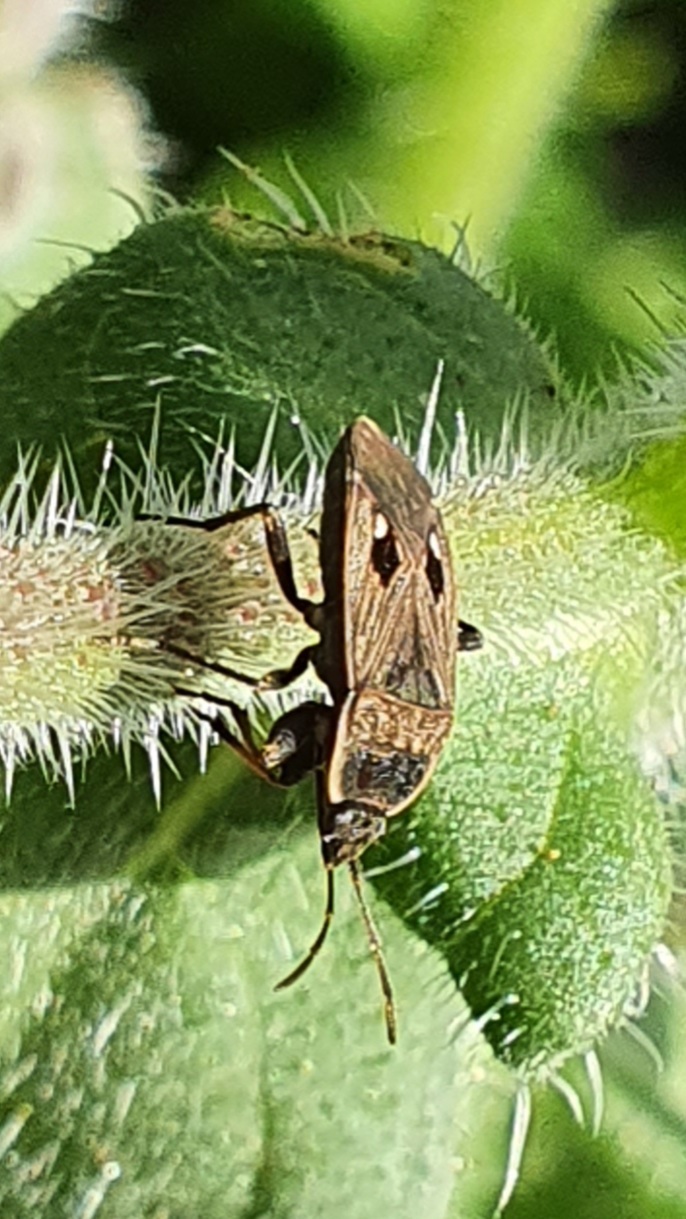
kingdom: Animalia
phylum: Arthropoda
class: Insecta
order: Hemiptera
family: Rhyparochromidae
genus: Graptopeltus
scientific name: Graptopeltus lynceus
